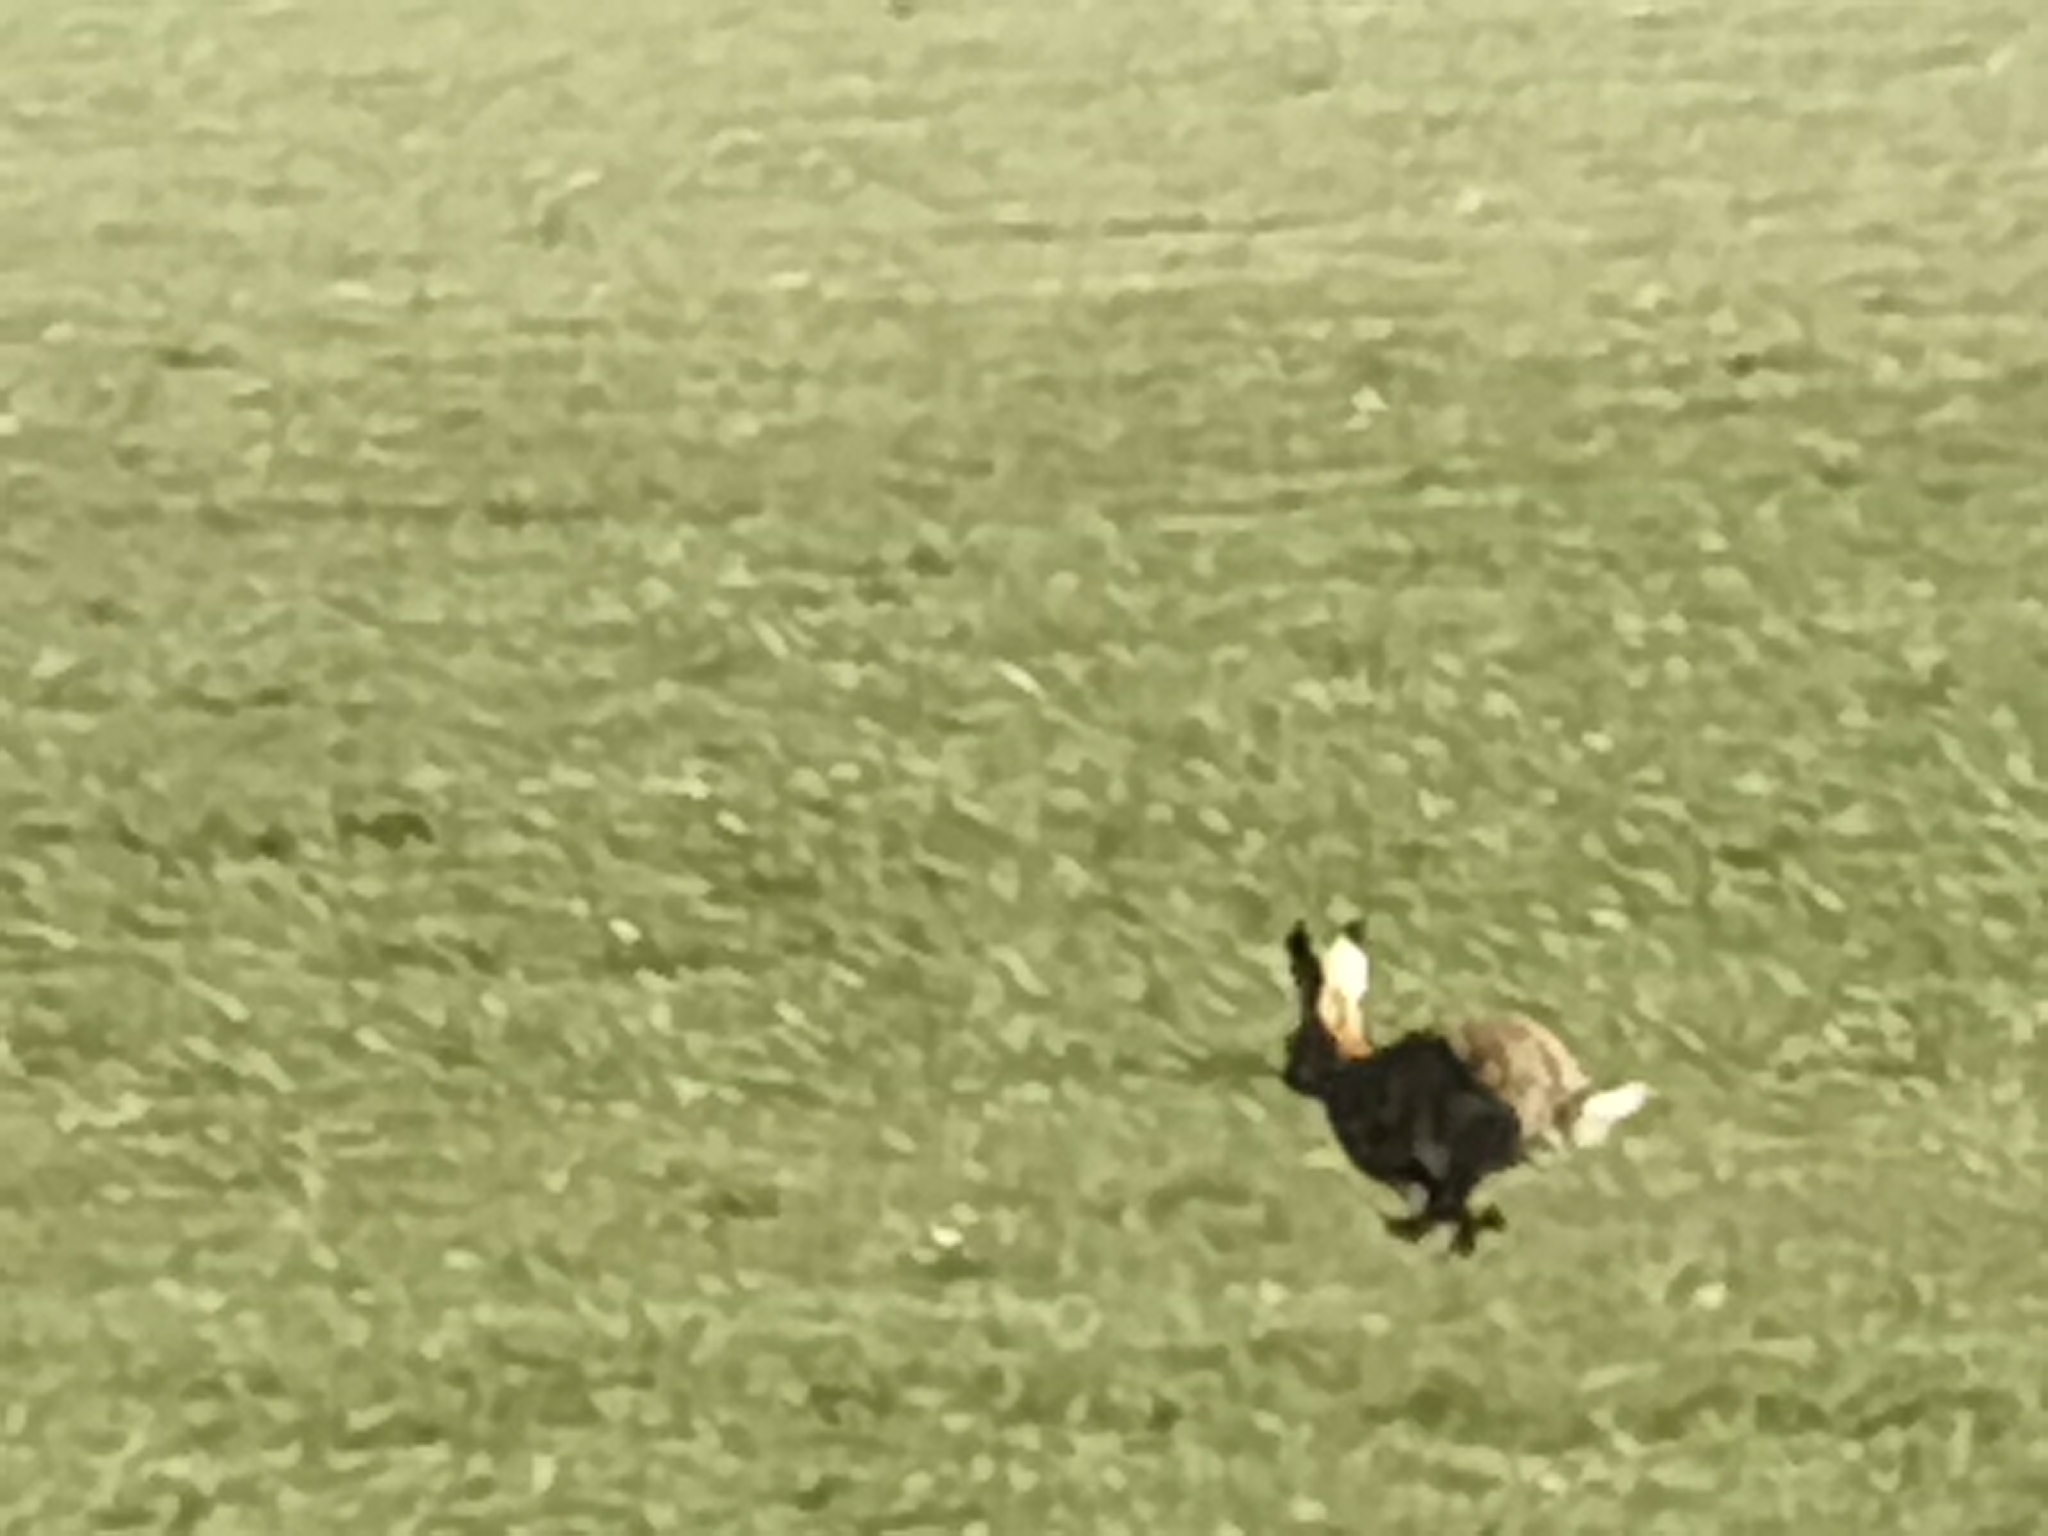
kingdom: Animalia
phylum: Chordata
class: Mammalia
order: Lagomorpha
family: Leporidae
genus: Lepus
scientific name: Lepus europaeus
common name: European hare
